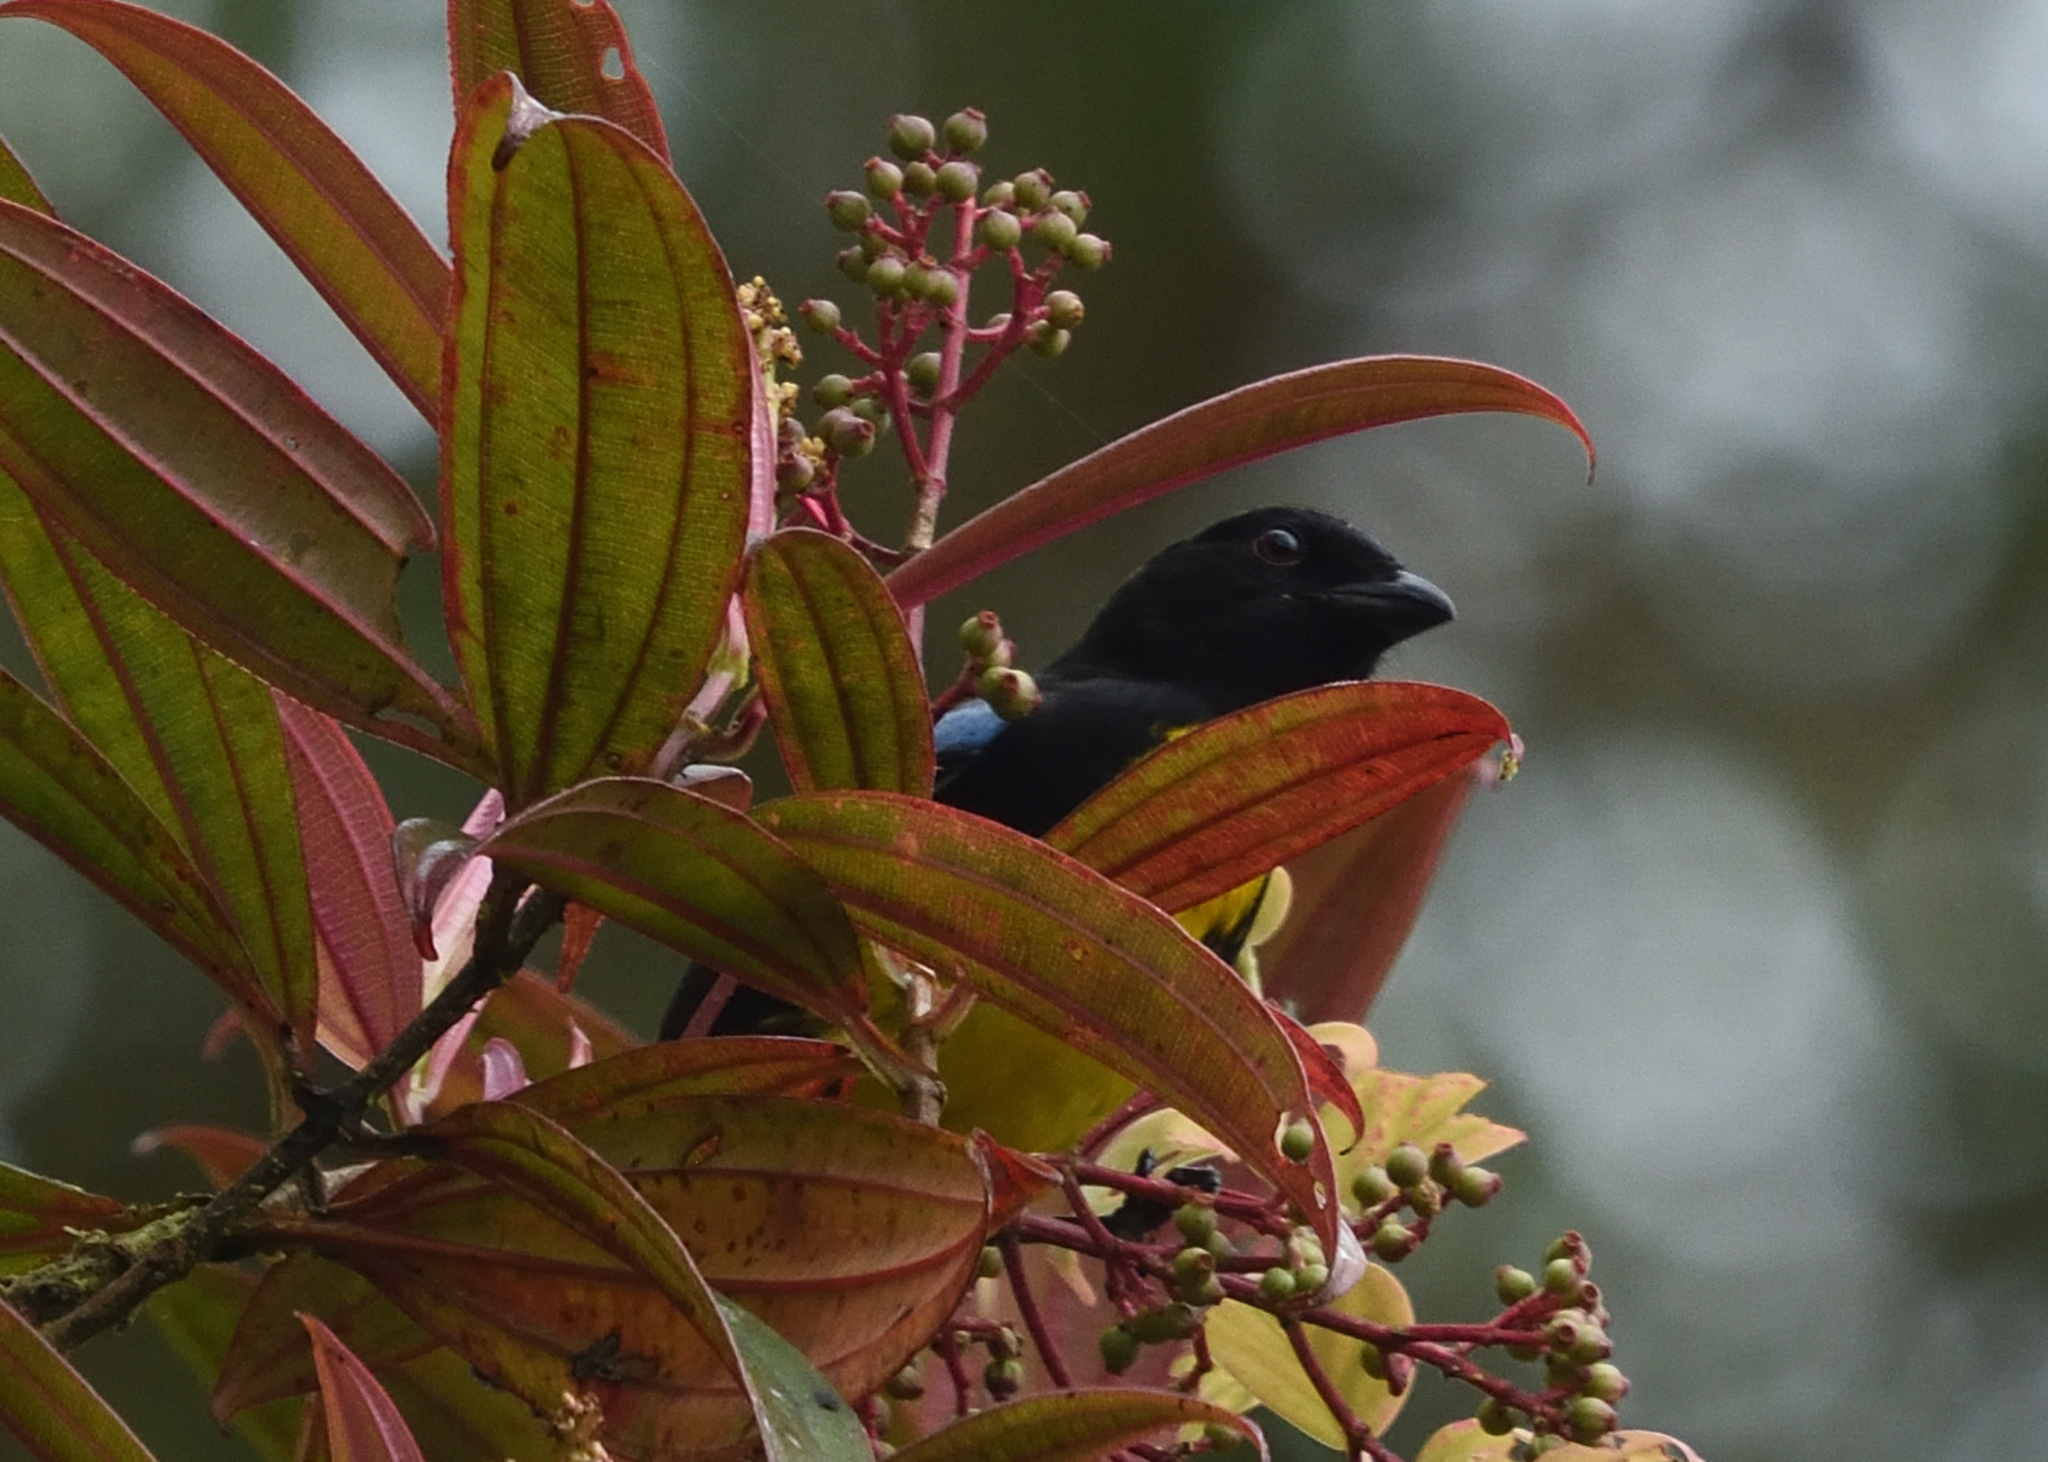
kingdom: Animalia
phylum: Chordata
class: Aves
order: Passeriformes
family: Thraupidae
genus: Bangsia
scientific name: Bangsia melanochlamys
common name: Black-and-gold tanager
